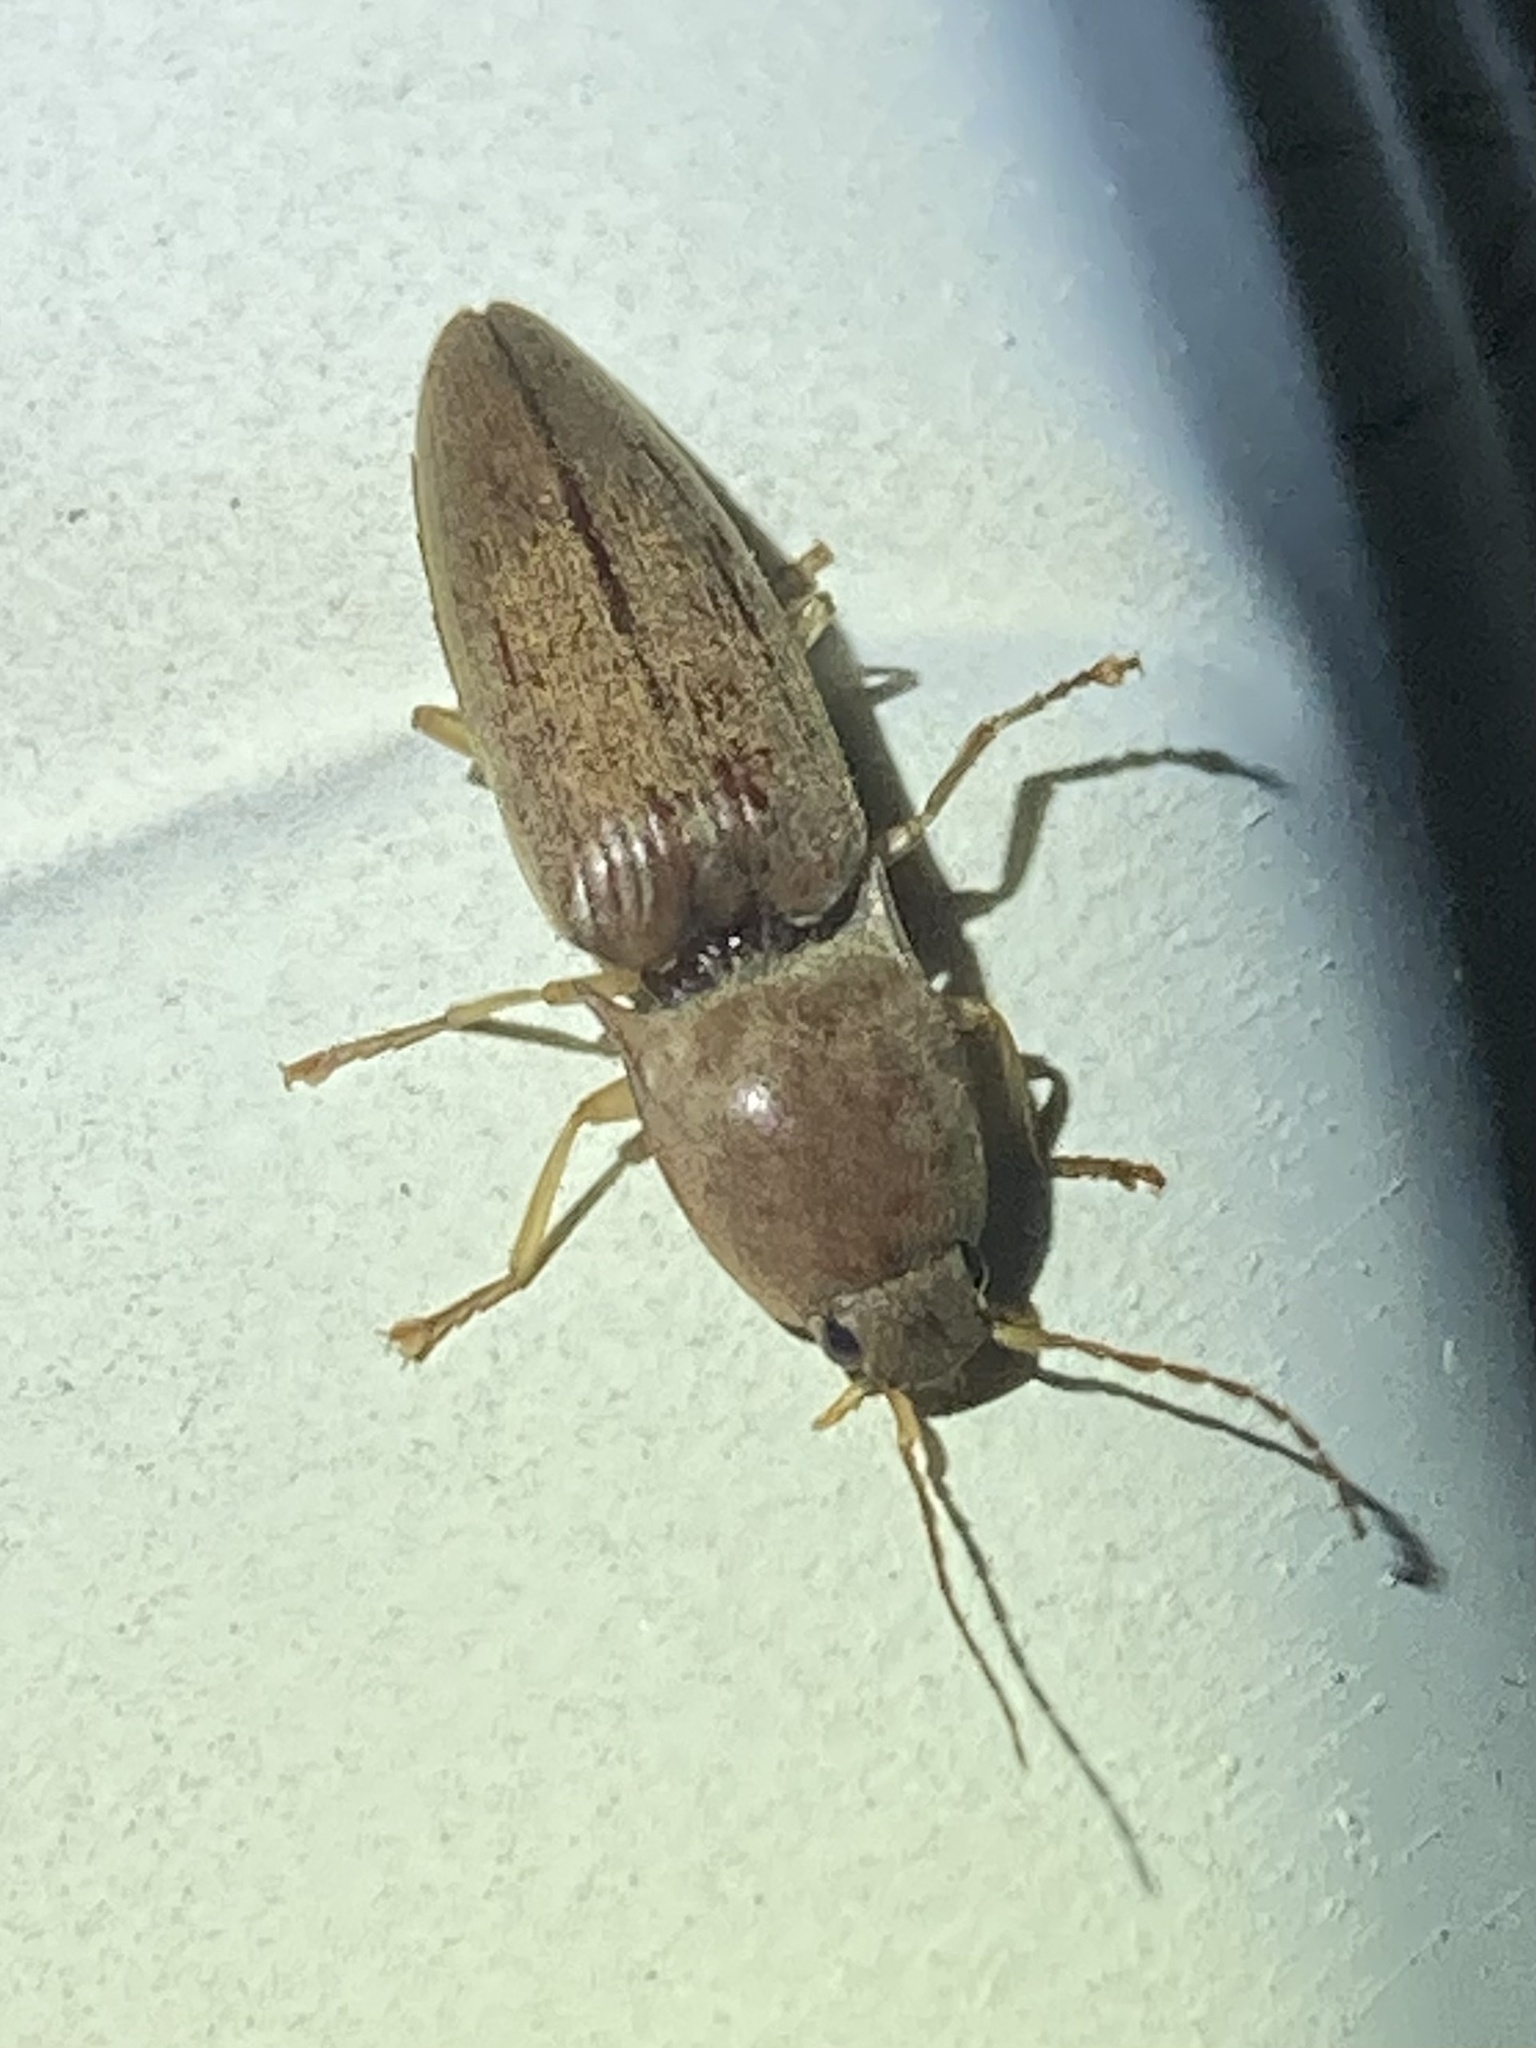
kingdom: Animalia
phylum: Arthropoda
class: Insecta
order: Coleoptera
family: Elateridae
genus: Monocrepidius
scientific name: Monocrepidius lividus
